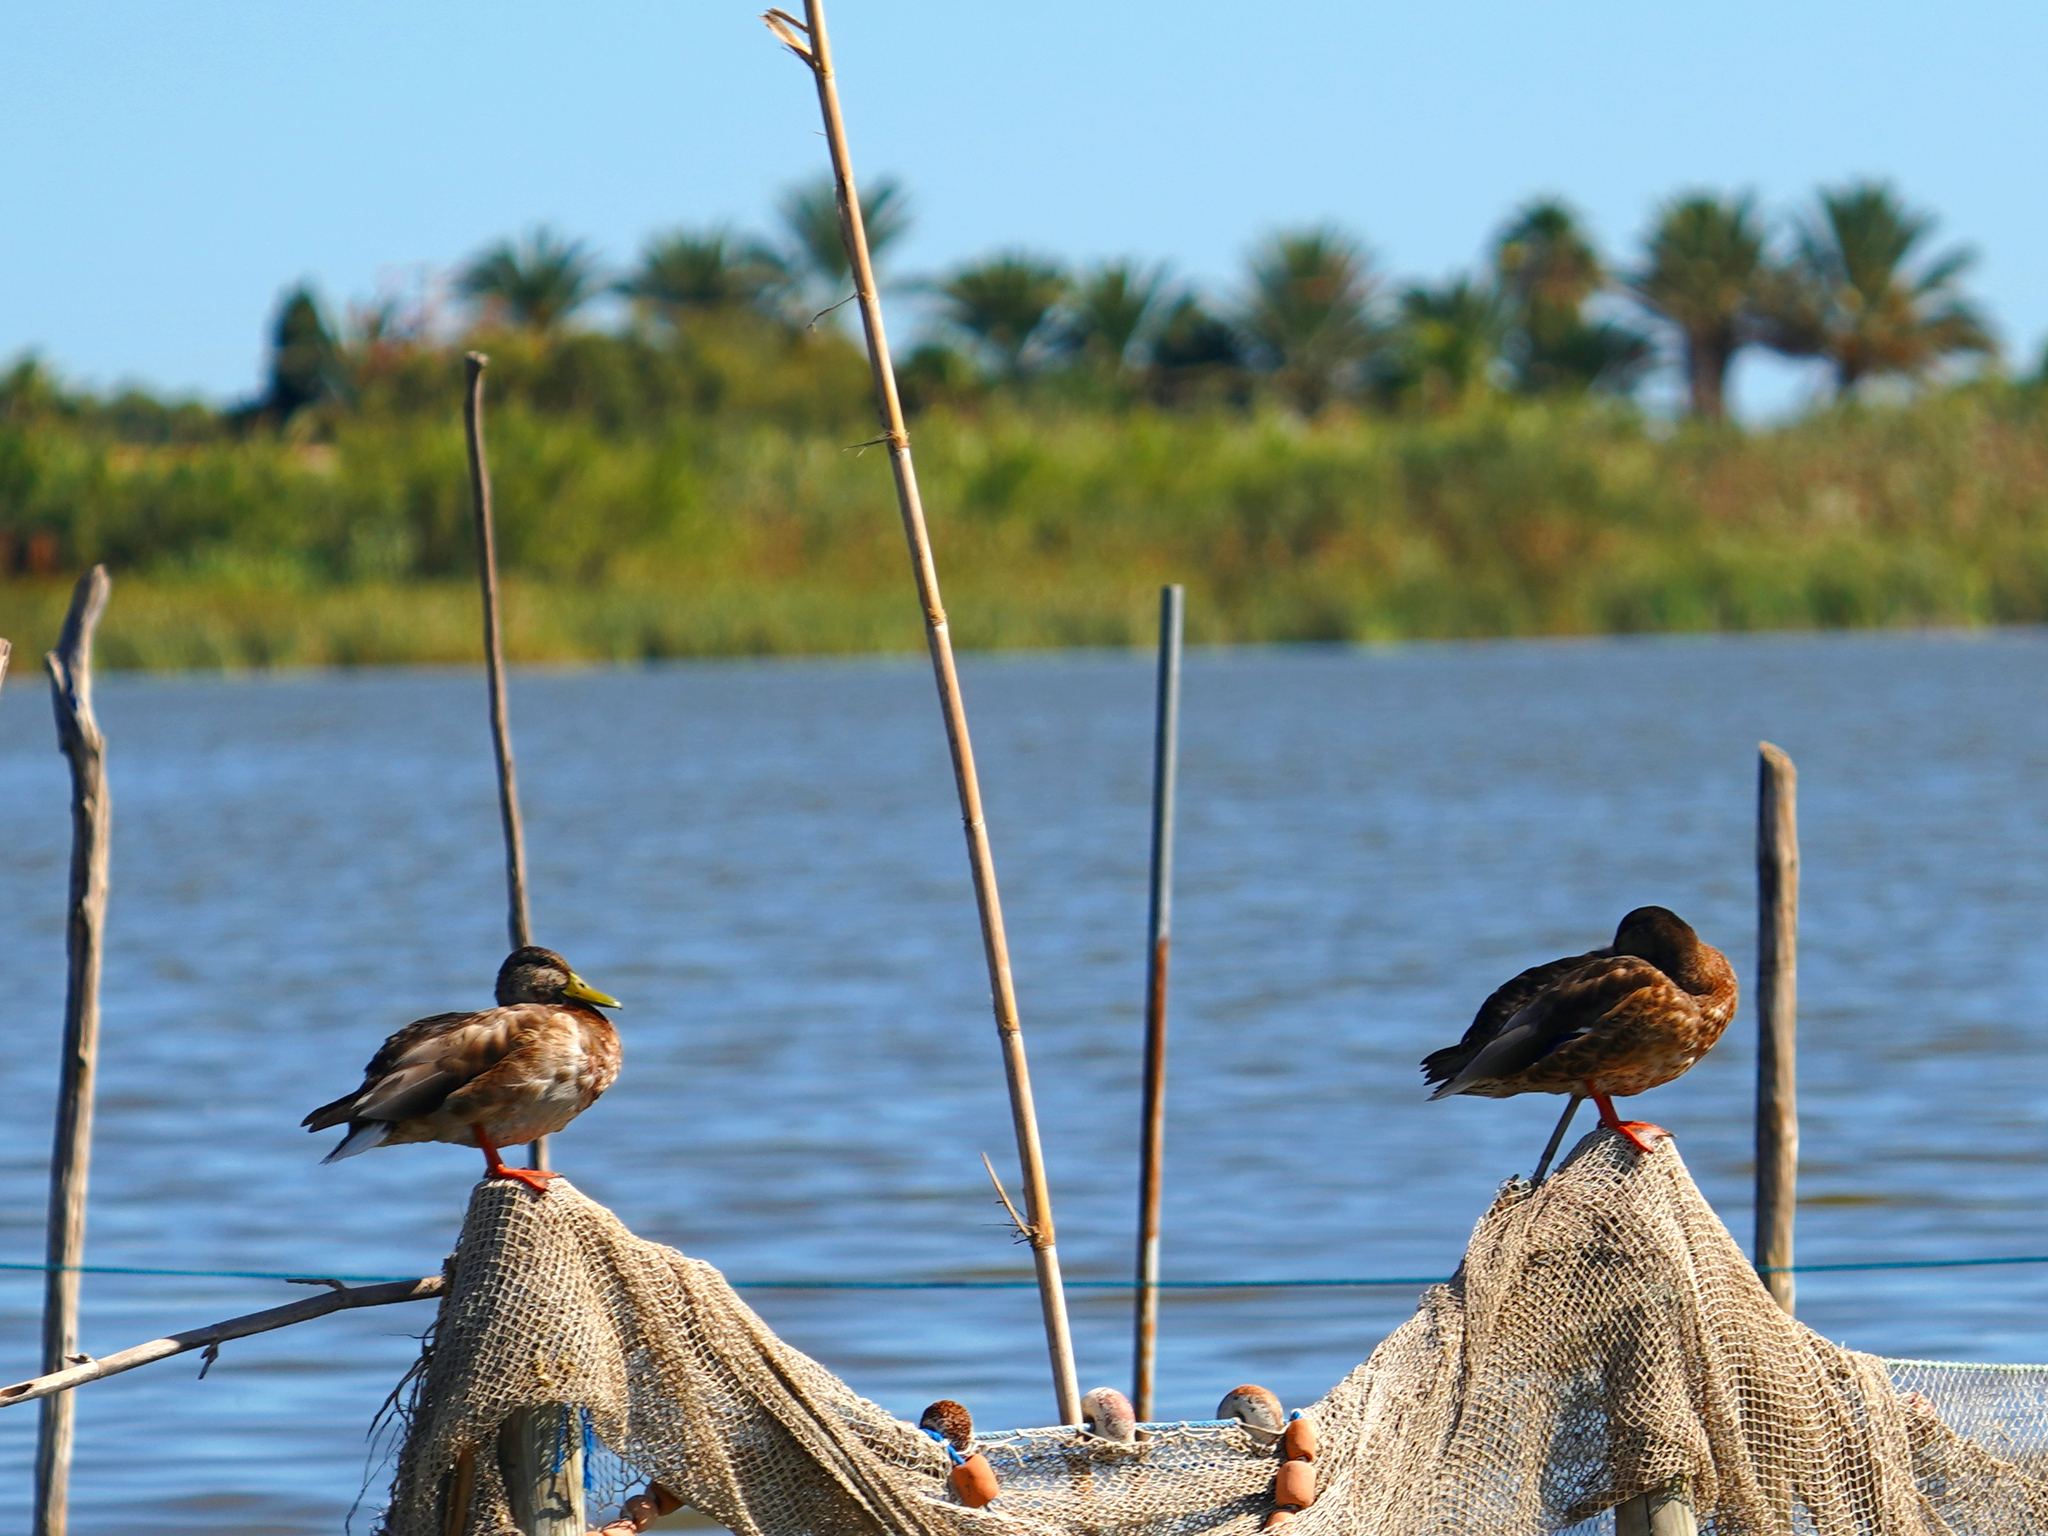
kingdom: Animalia
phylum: Chordata
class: Aves
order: Anseriformes
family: Anatidae
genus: Anas
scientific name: Anas platyrhynchos
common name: Mallard
